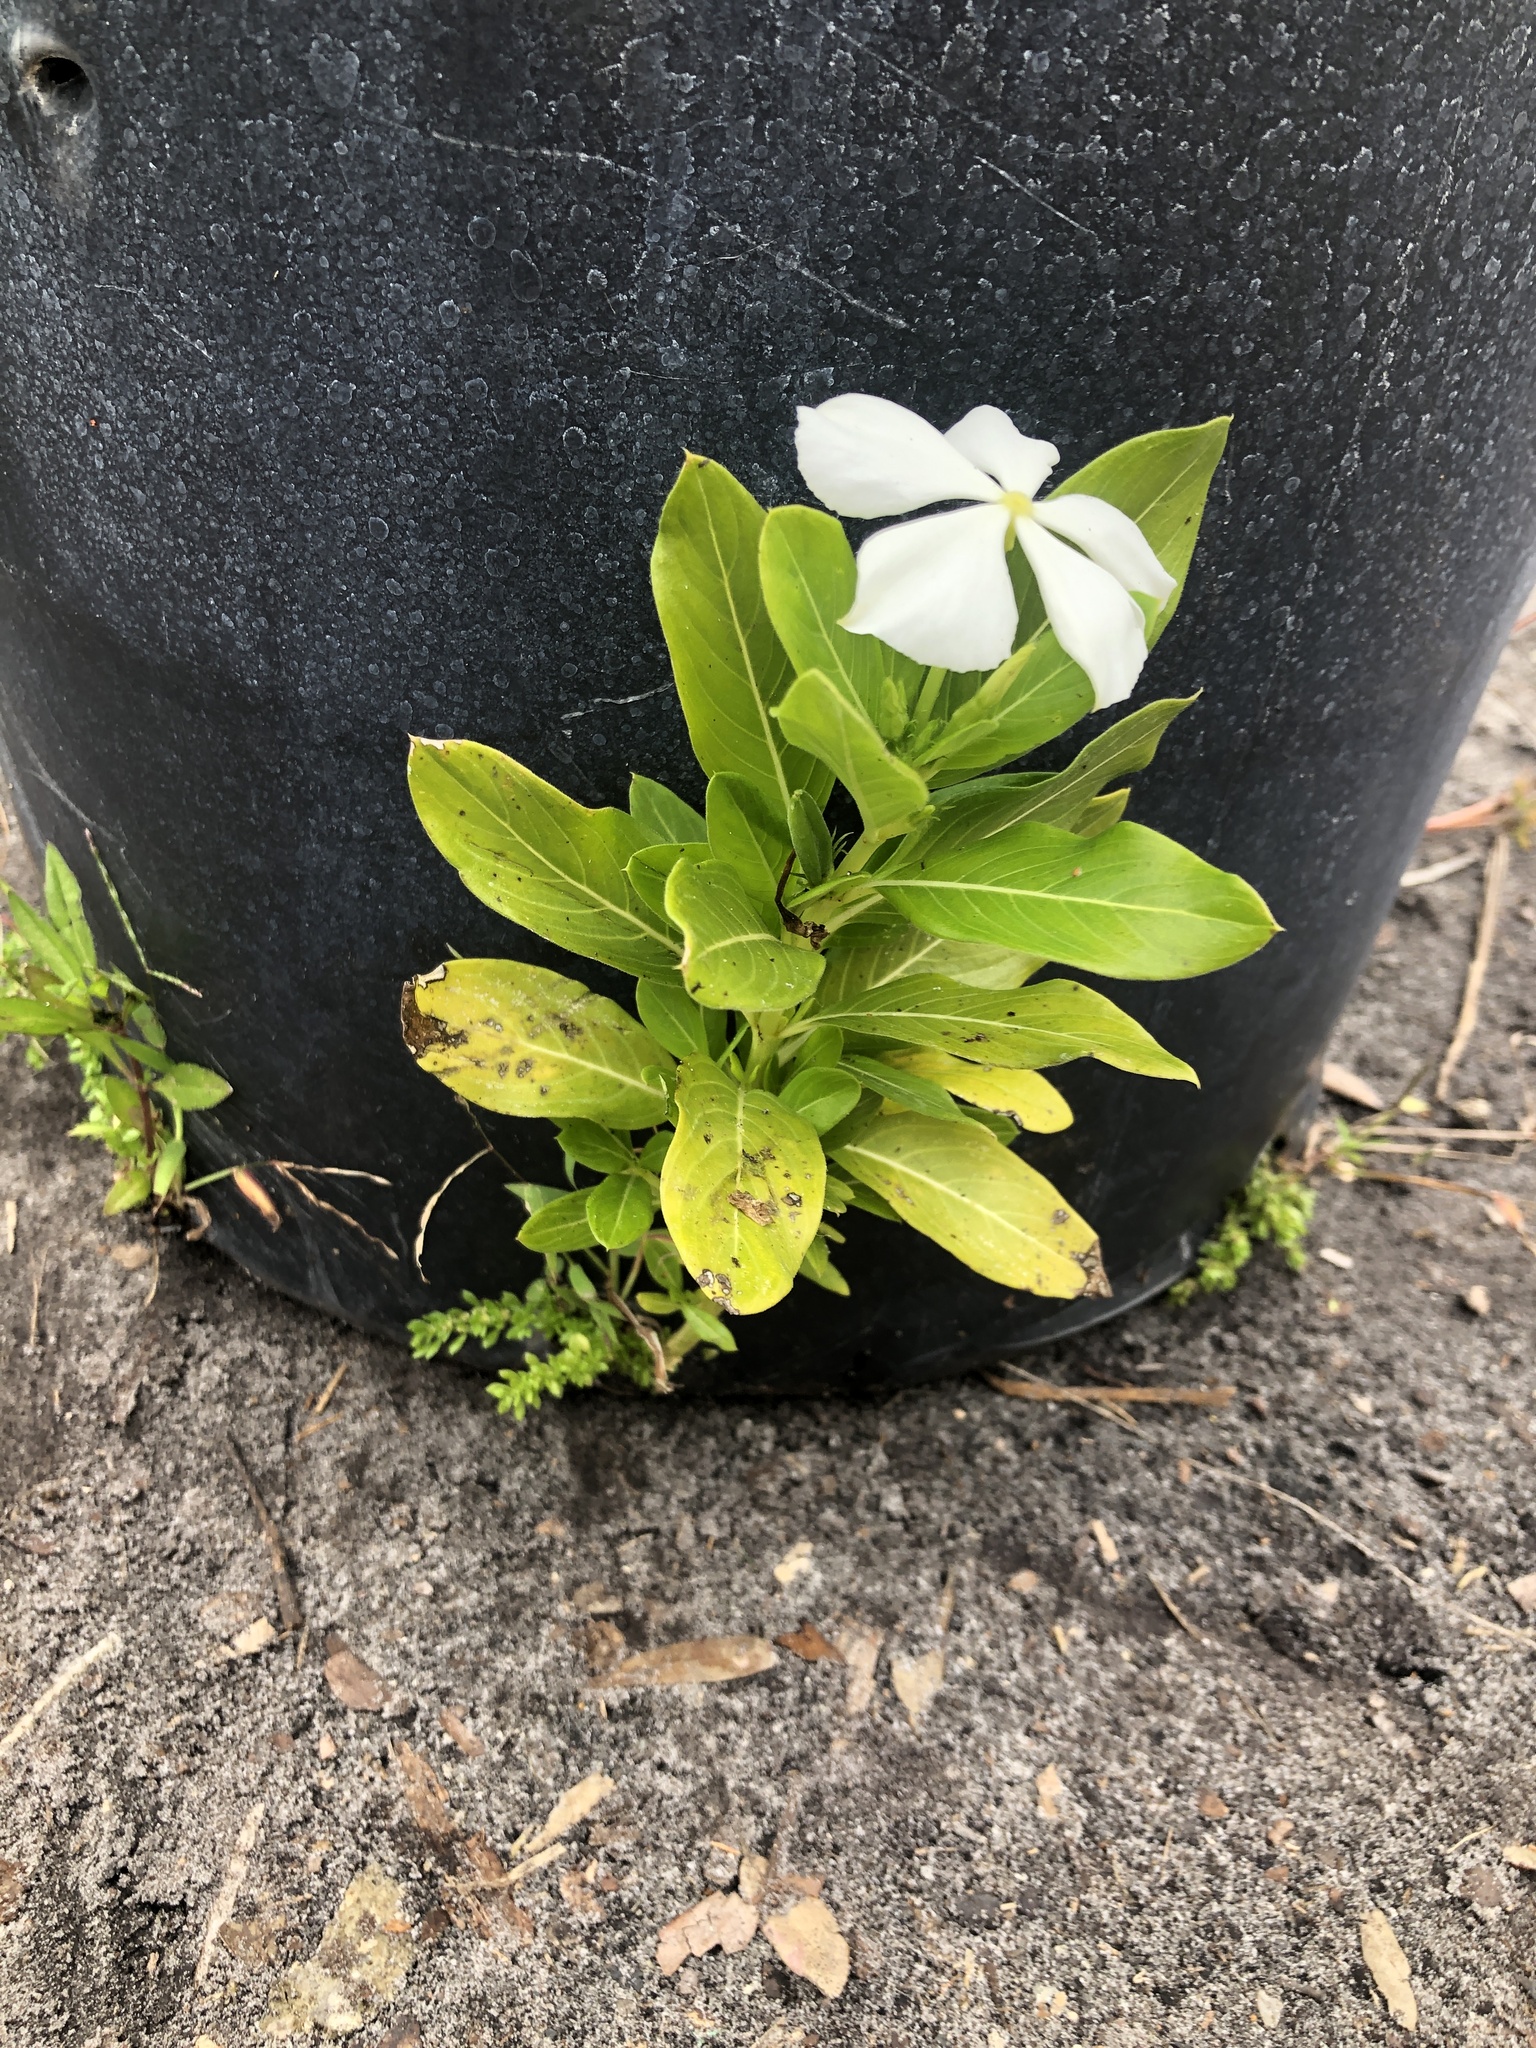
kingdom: Plantae
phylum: Tracheophyta
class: Magnoliopsida
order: Gentianales
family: Apocynaceae
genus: Catharanthus
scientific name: Catharanthus roseus
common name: Madagascar periwinkle
